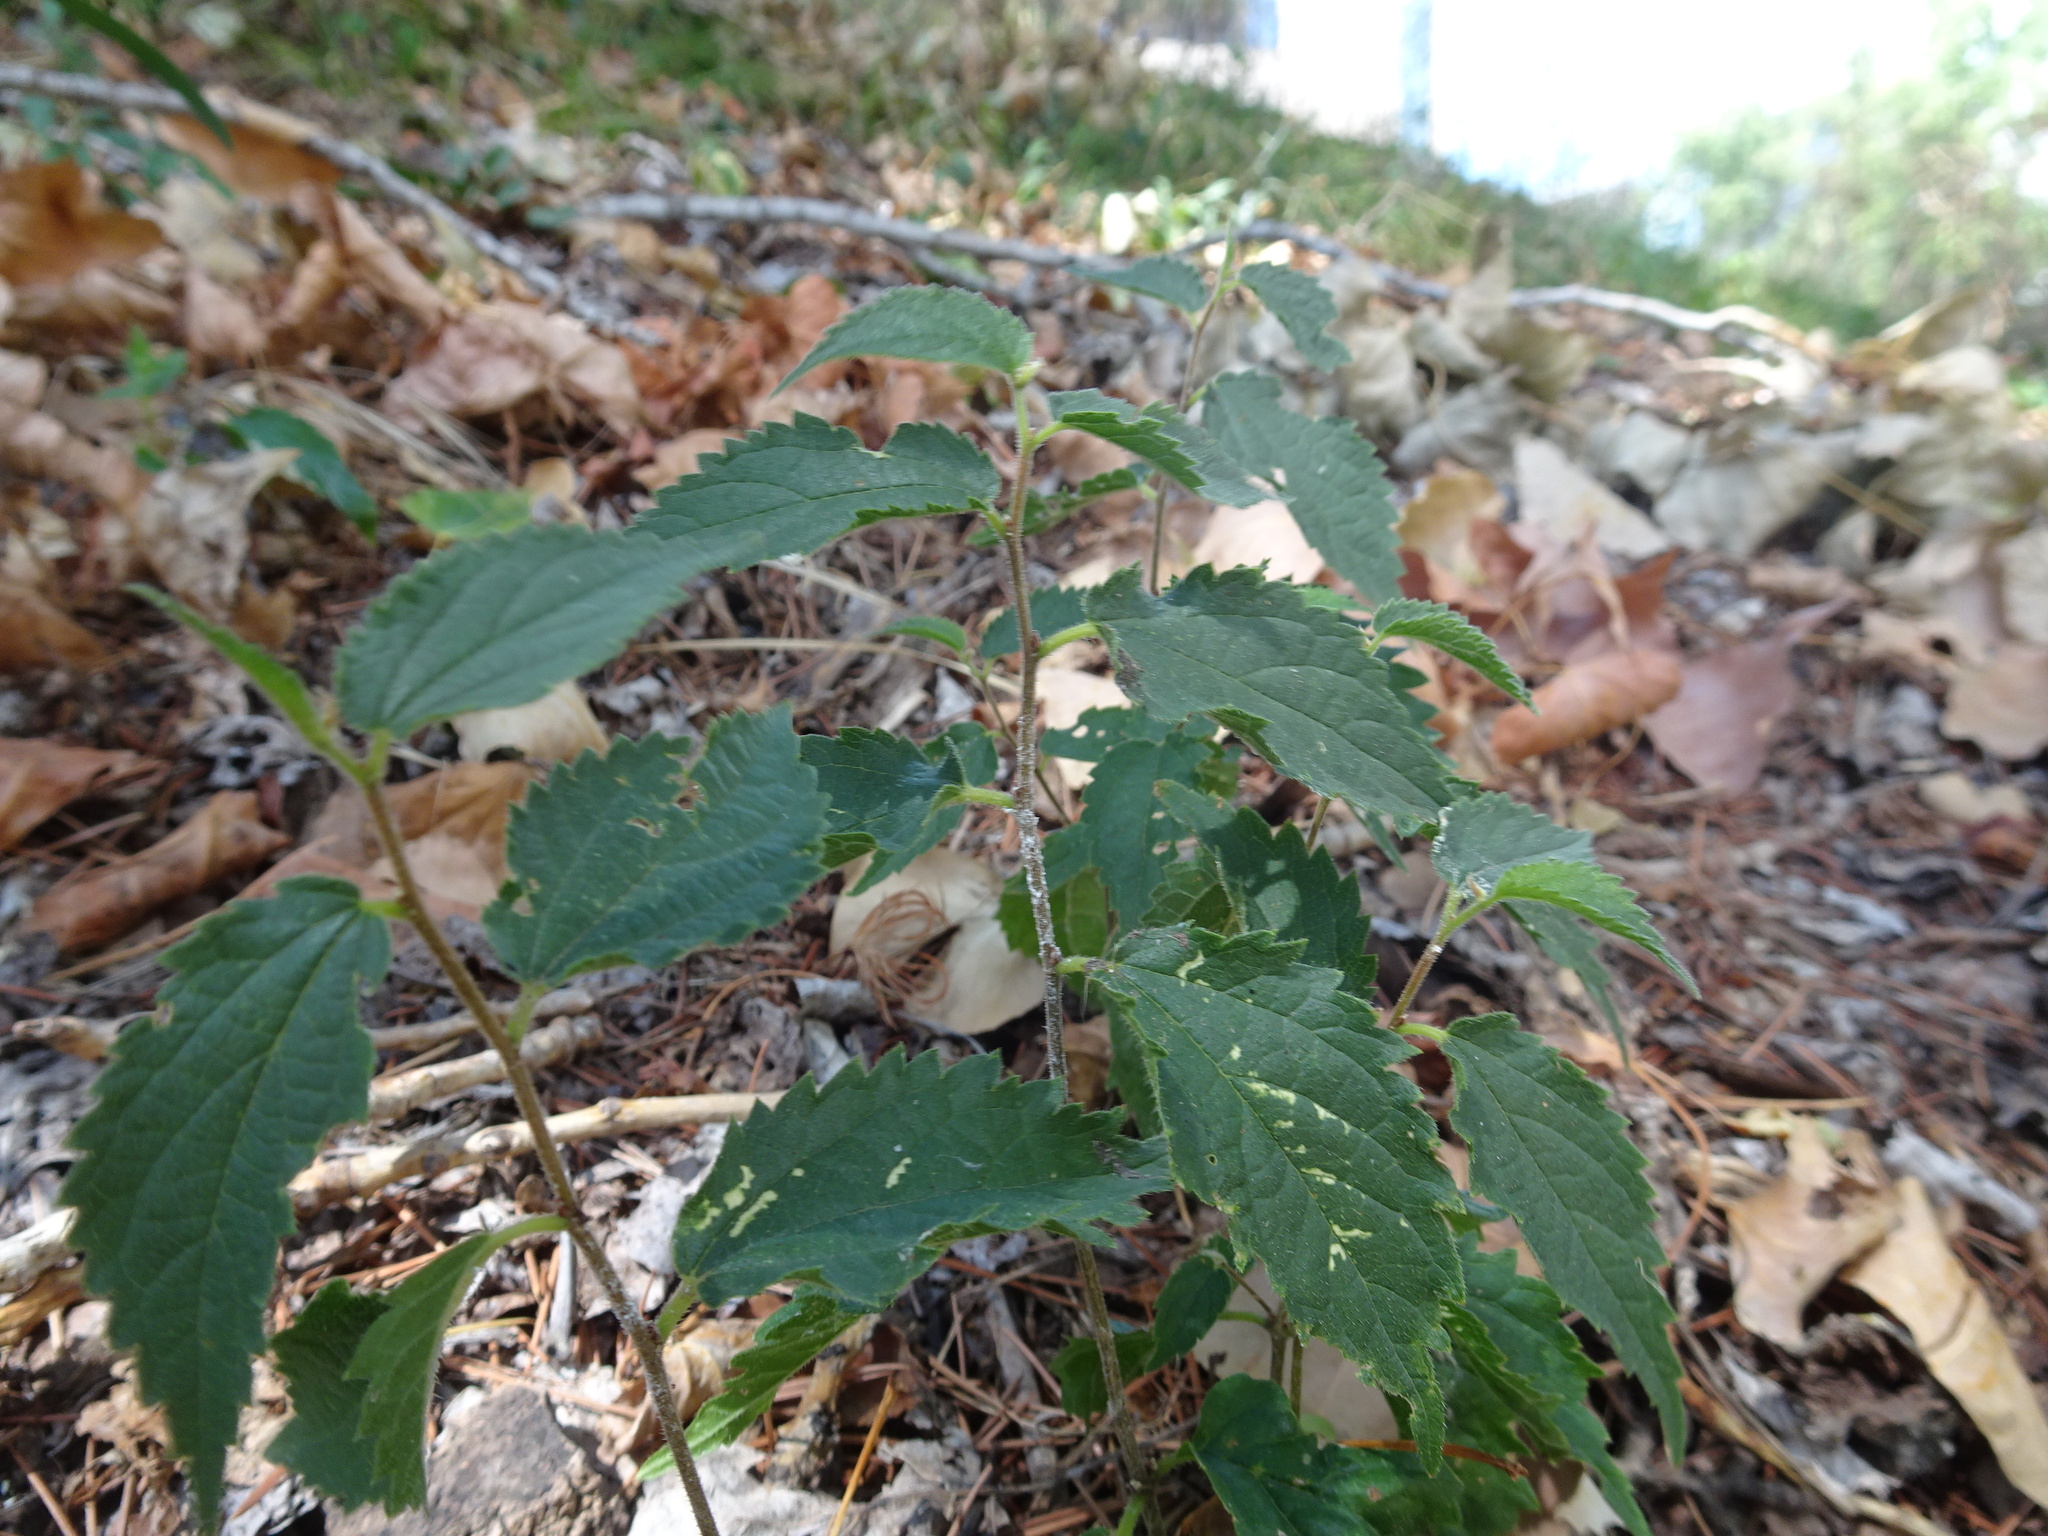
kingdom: Plantae
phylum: Tracheophyta
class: Magnoliopsida
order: Rosales
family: Cannabaceae
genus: Celtis
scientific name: Celtis australis
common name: European hackberry
